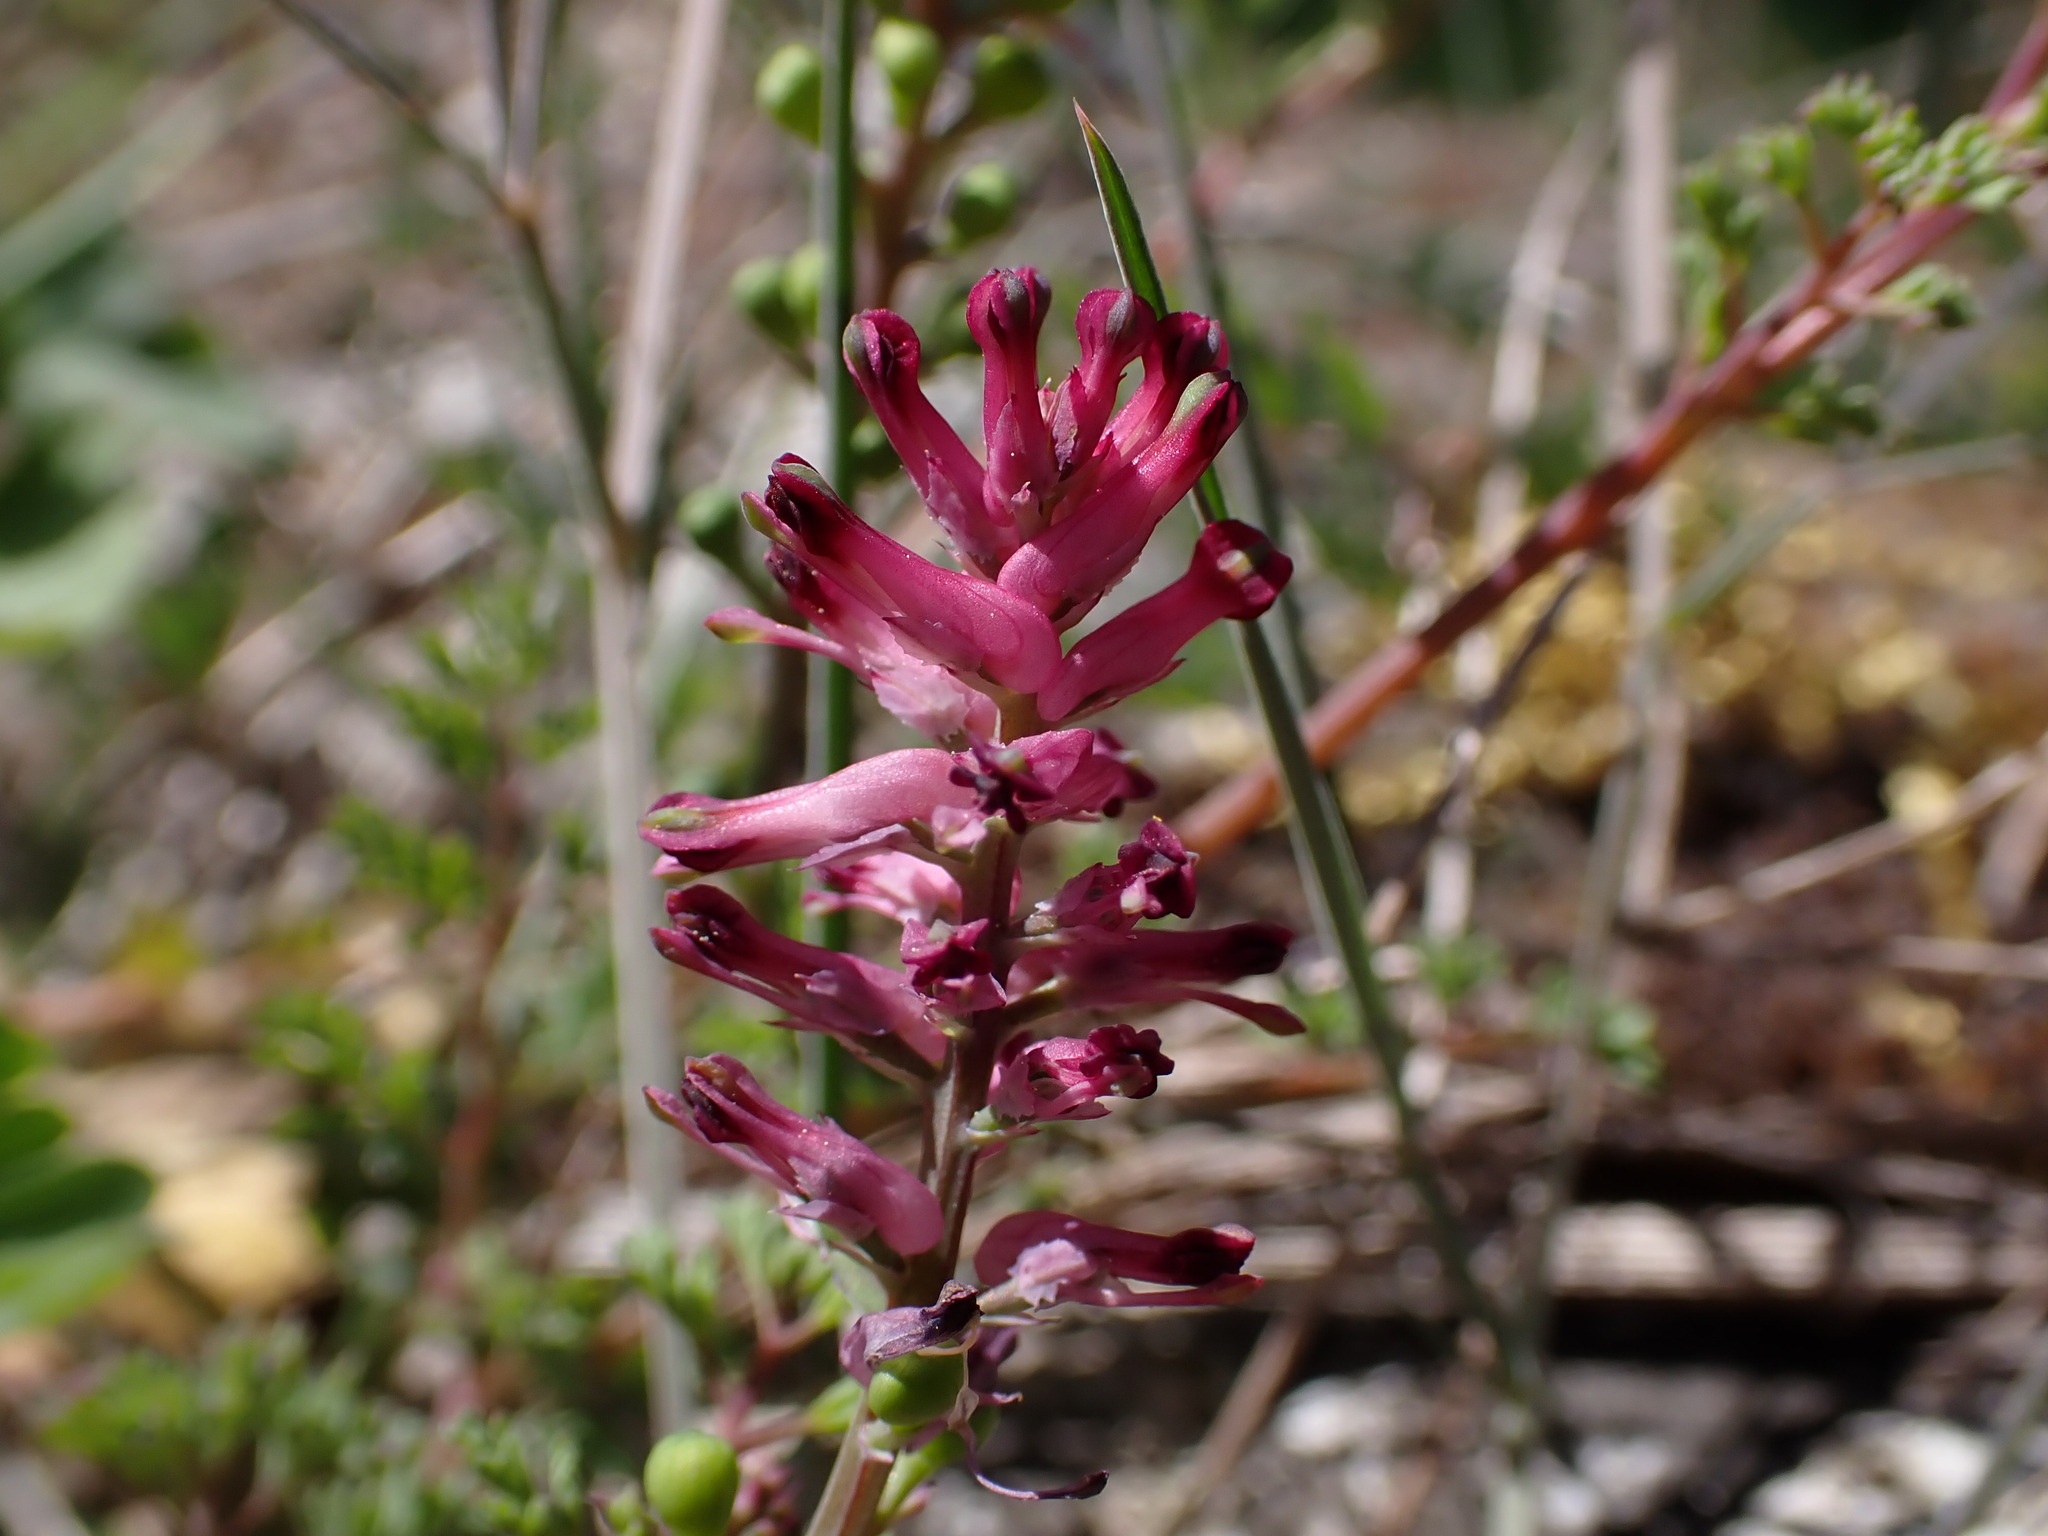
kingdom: Plantae
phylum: Tracheophyta
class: Magnoliopsida
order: Ranunculales
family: Papaveraceae
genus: Fumaria
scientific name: Fumaria officinalis
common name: Common fumitory
